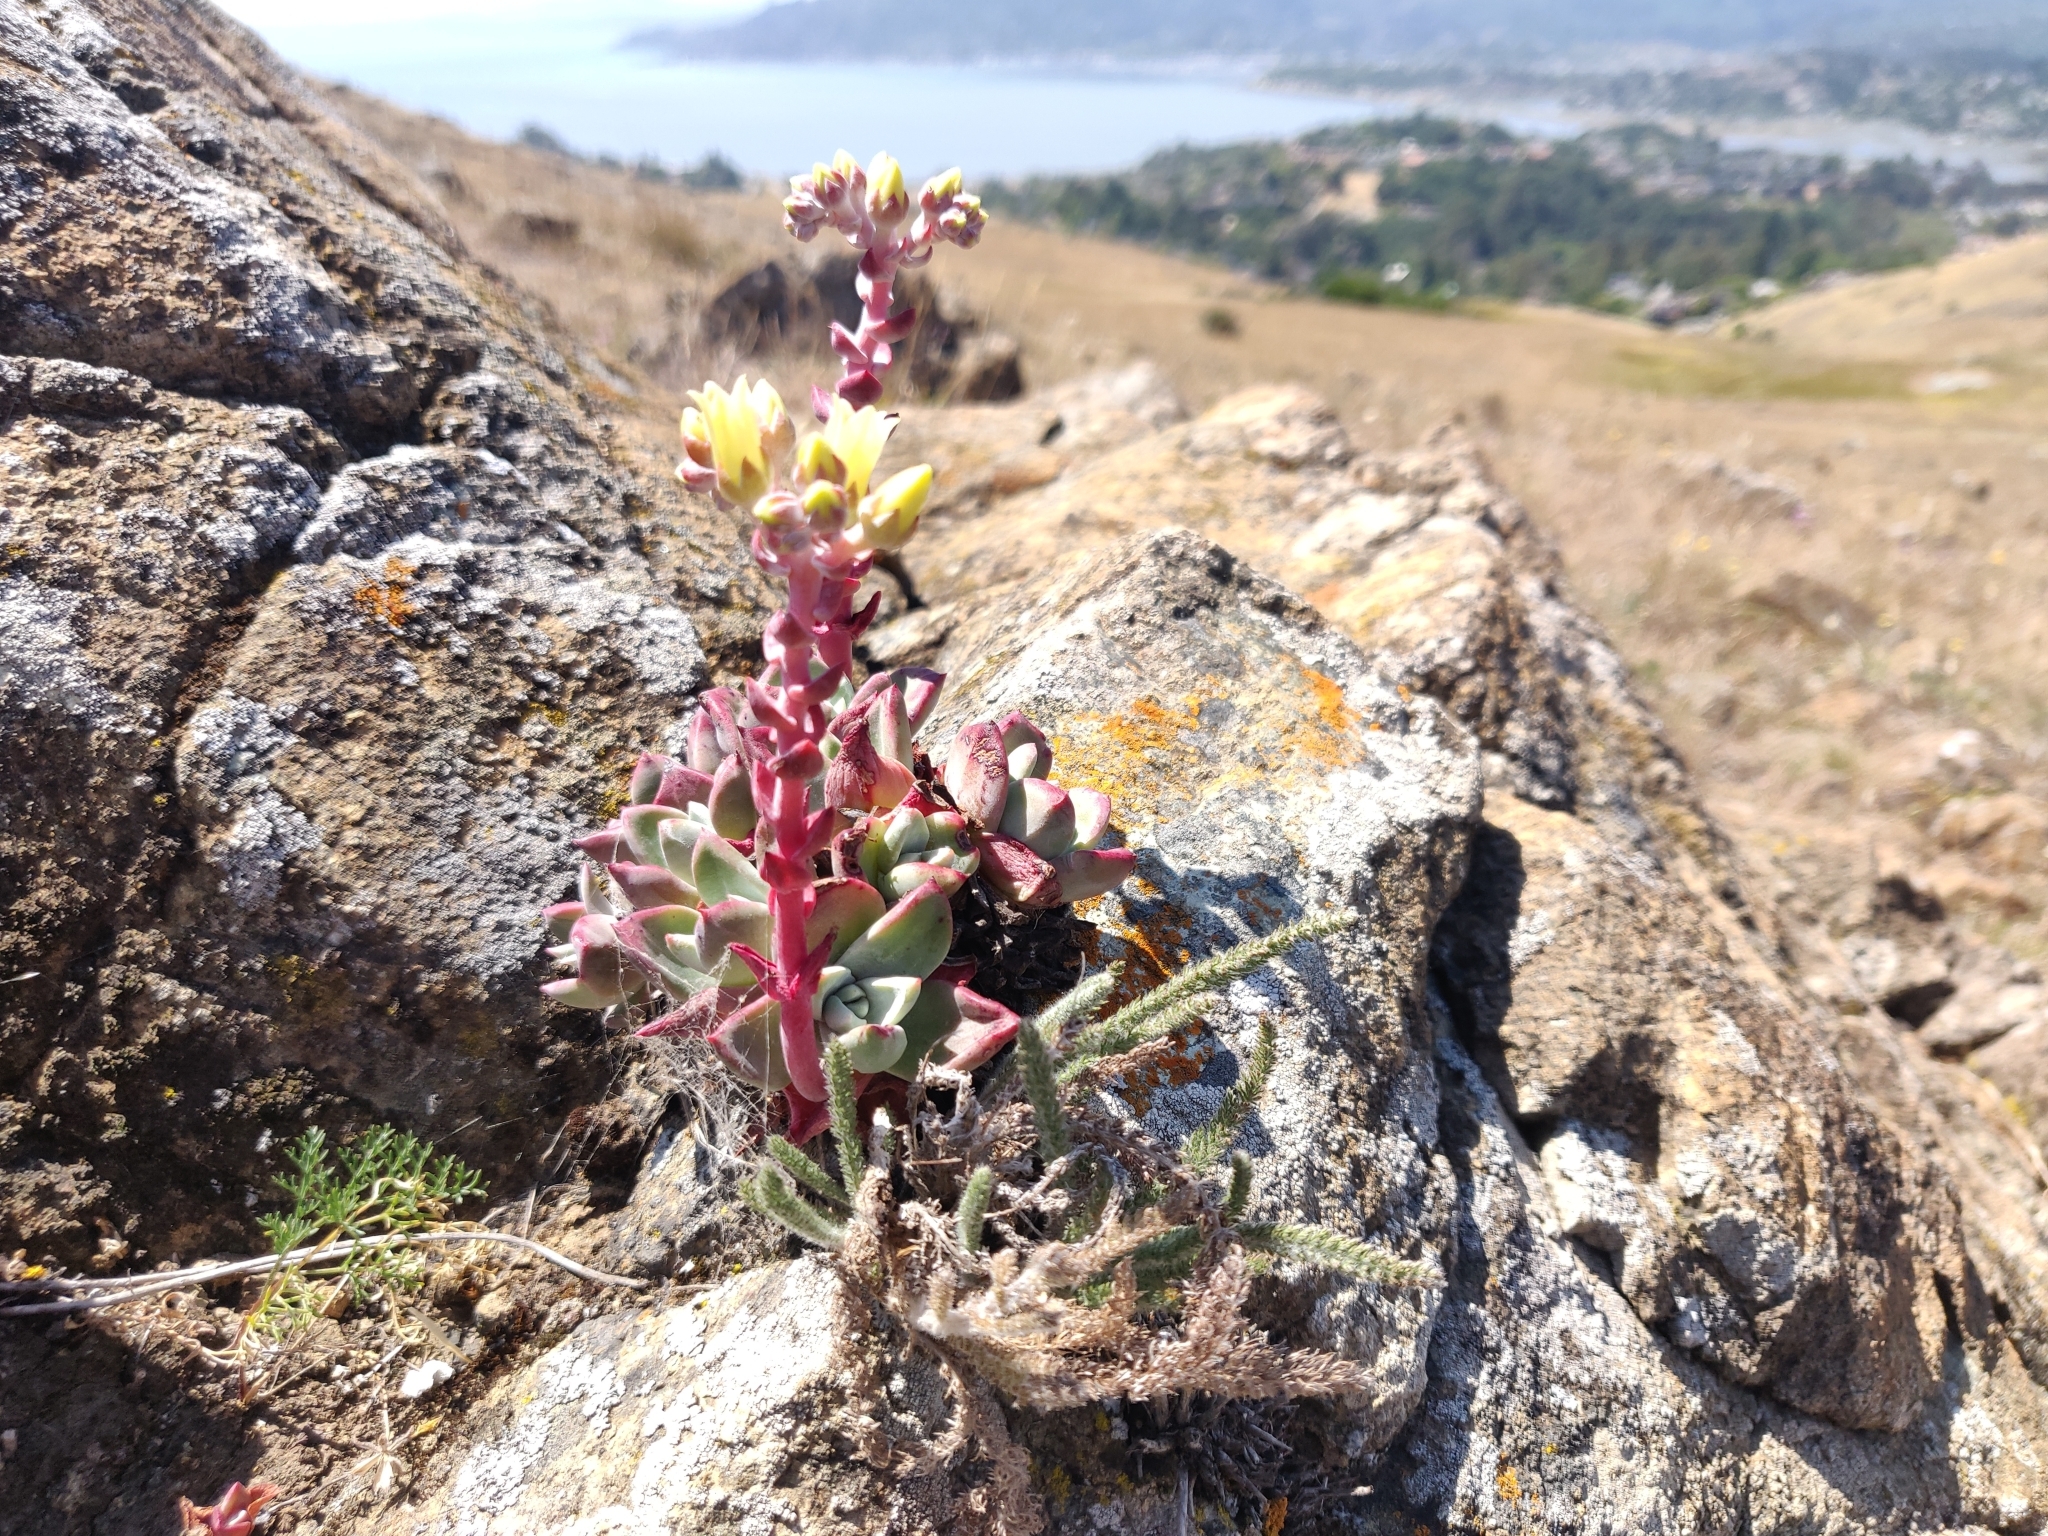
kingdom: Plantae
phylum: Tracheophyta
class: Magnoliopsida
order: Saxifragales
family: Crassulaceae
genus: Dudleya
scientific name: Dudleya farinosa
